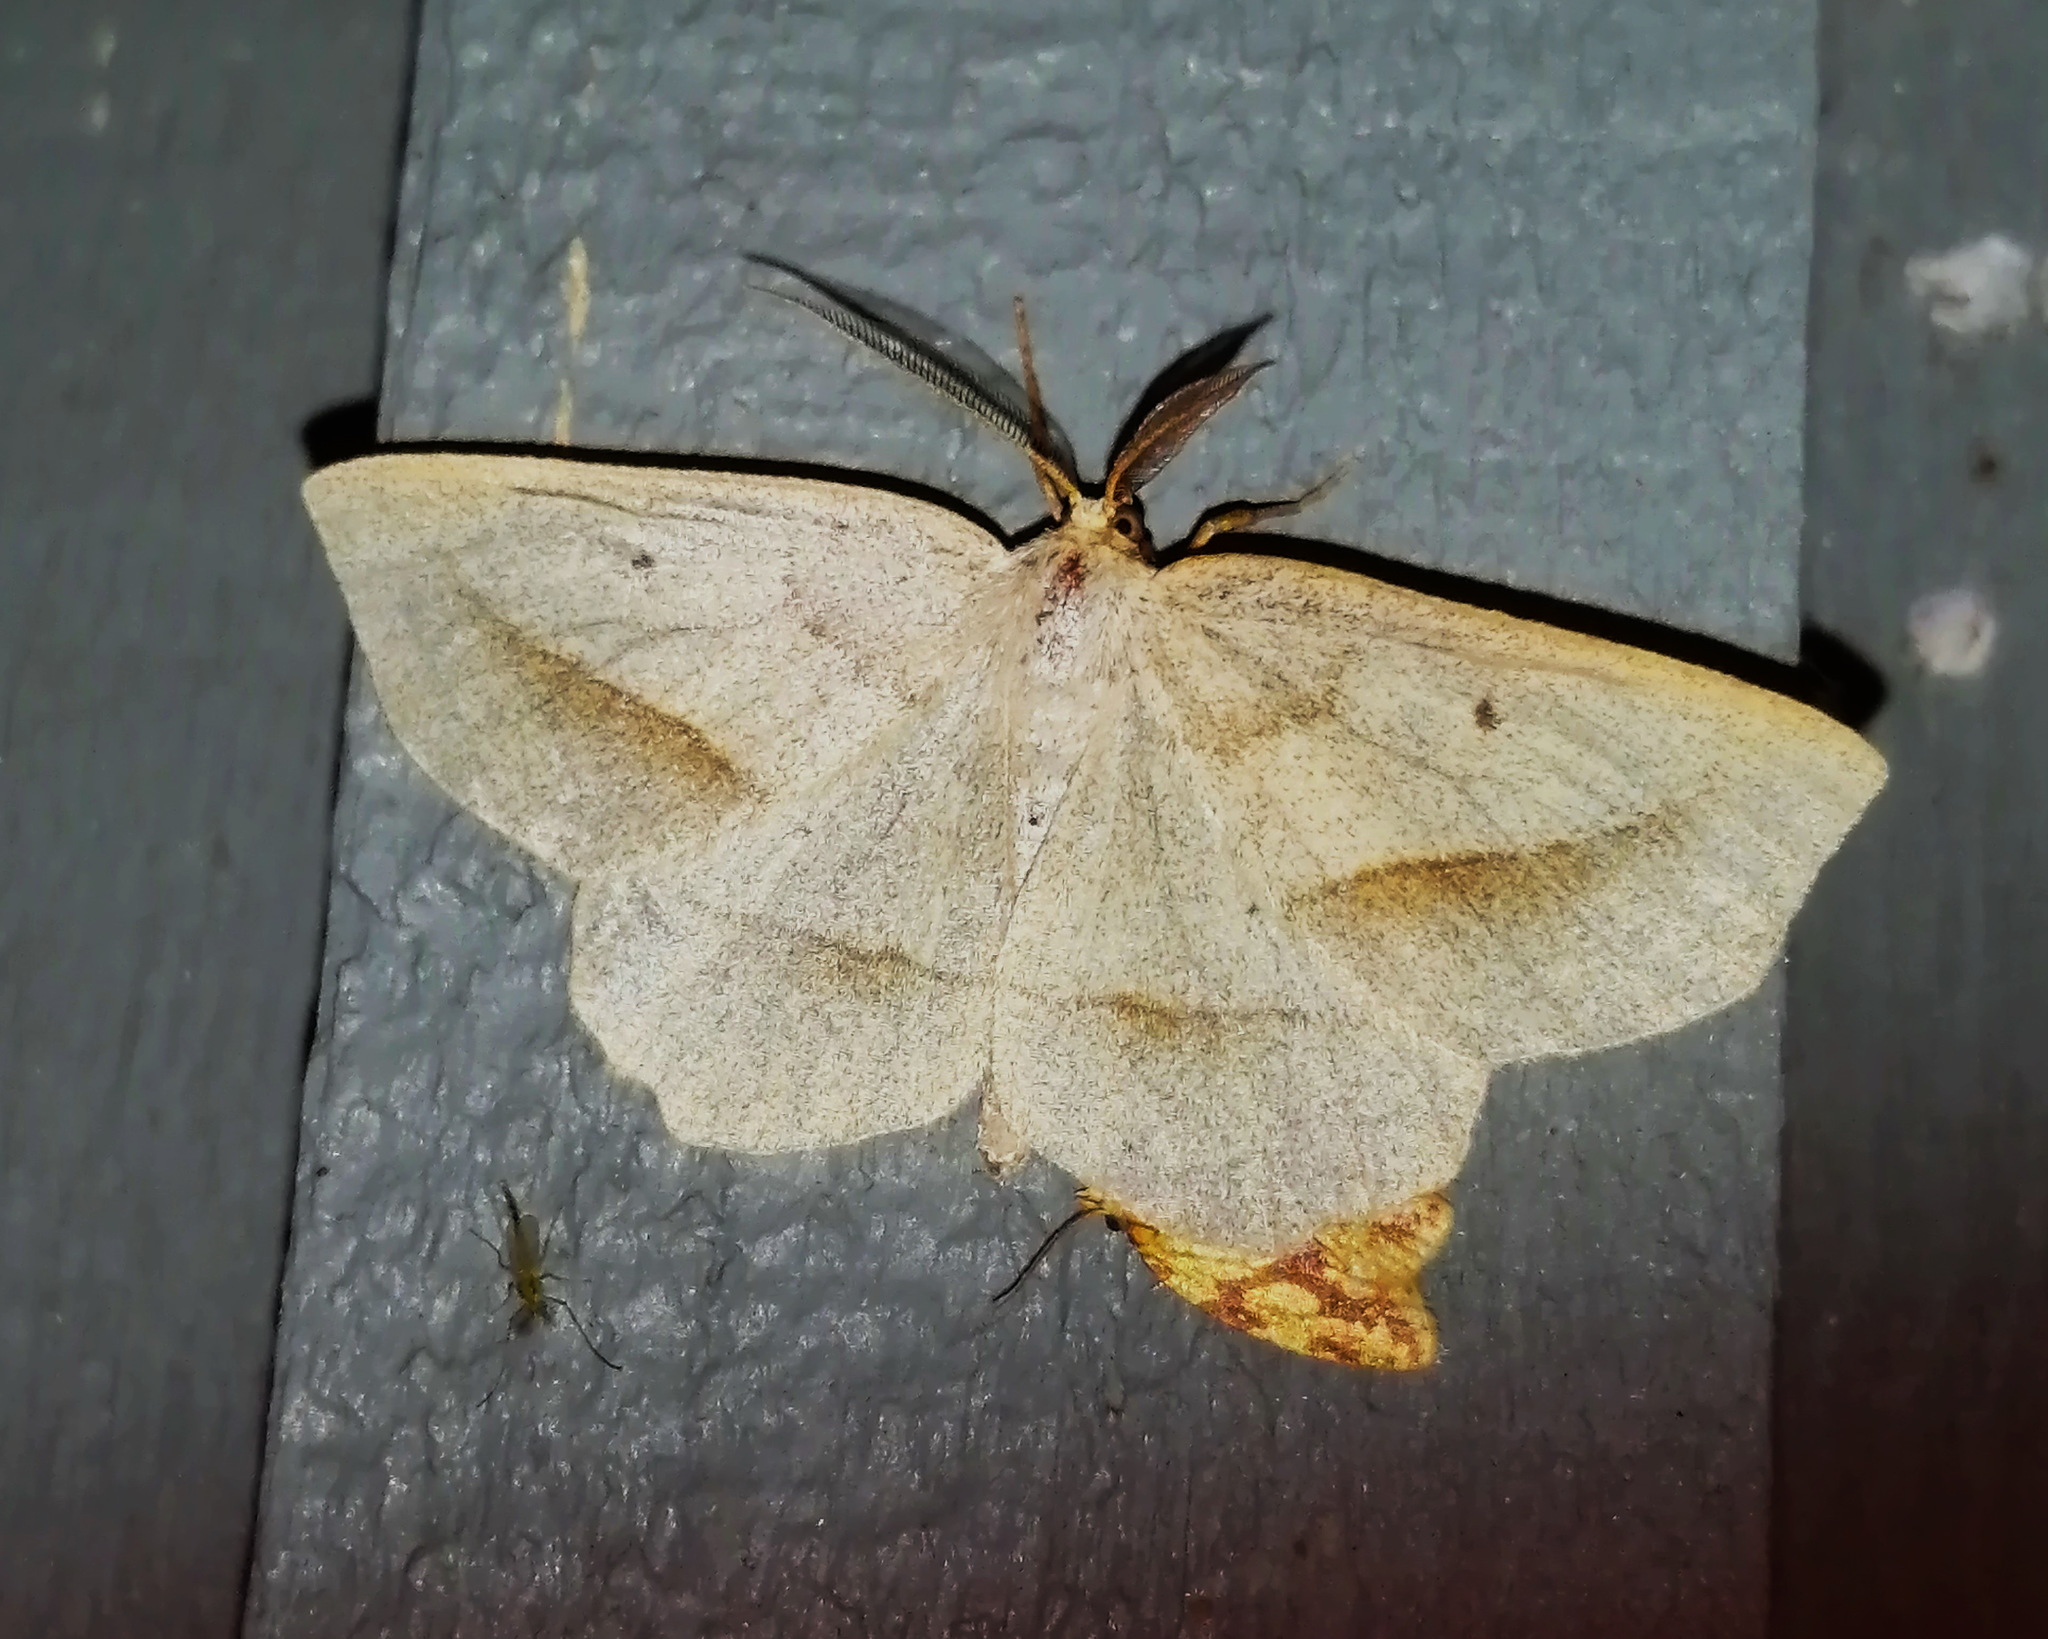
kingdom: Animalia
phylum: Arthropoda
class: Insecta
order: Lepidoptera
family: Geometridae
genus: Euchlaena
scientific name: Euchlaena irraria
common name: Least-marked euchlaena
